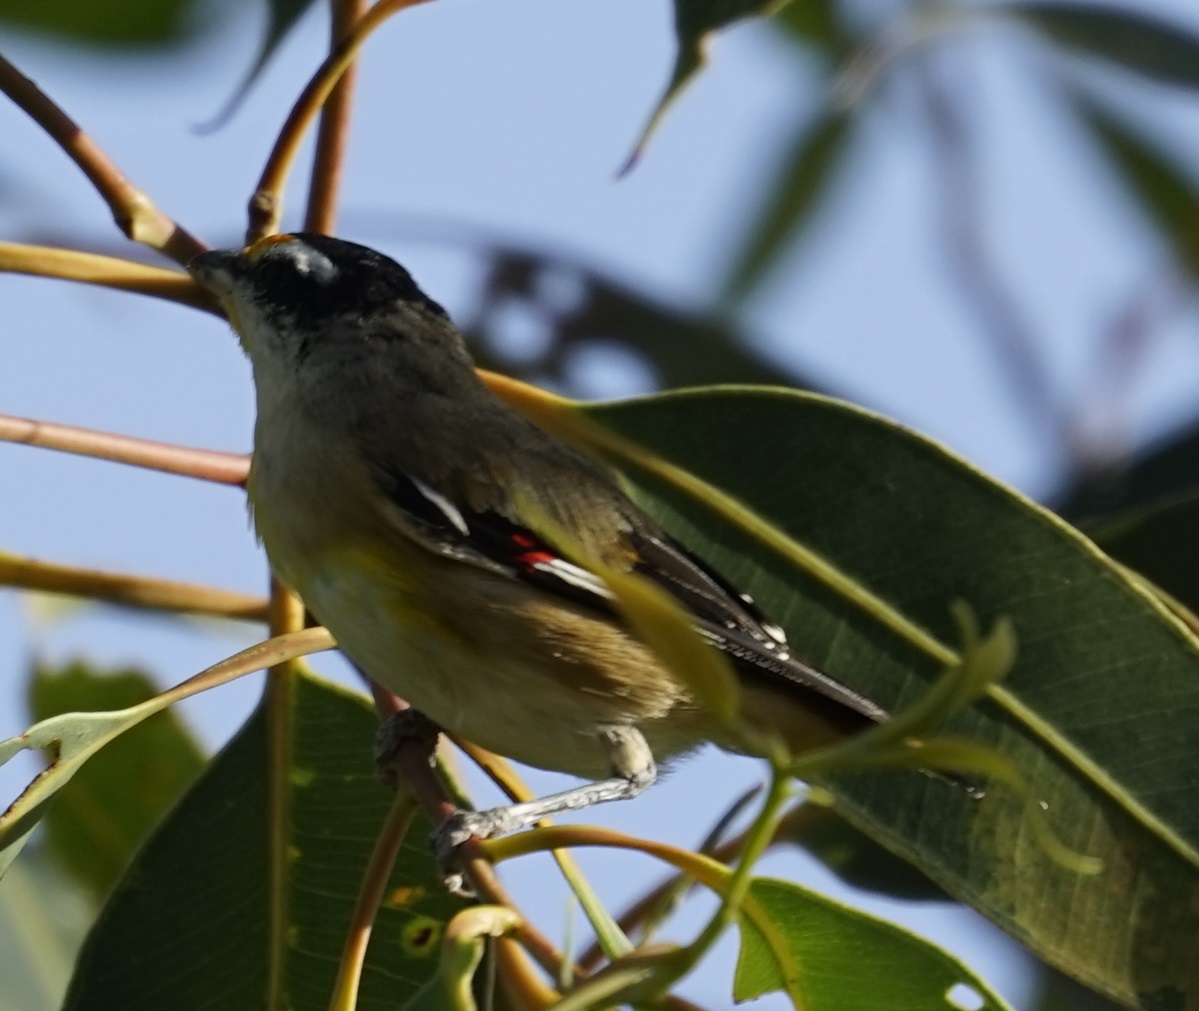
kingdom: Animalia
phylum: Chordata
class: Aves
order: Passeriformes
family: Pardalotidae
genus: Pardalotus
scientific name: Pardalotus striatus
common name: Striated pardalote
